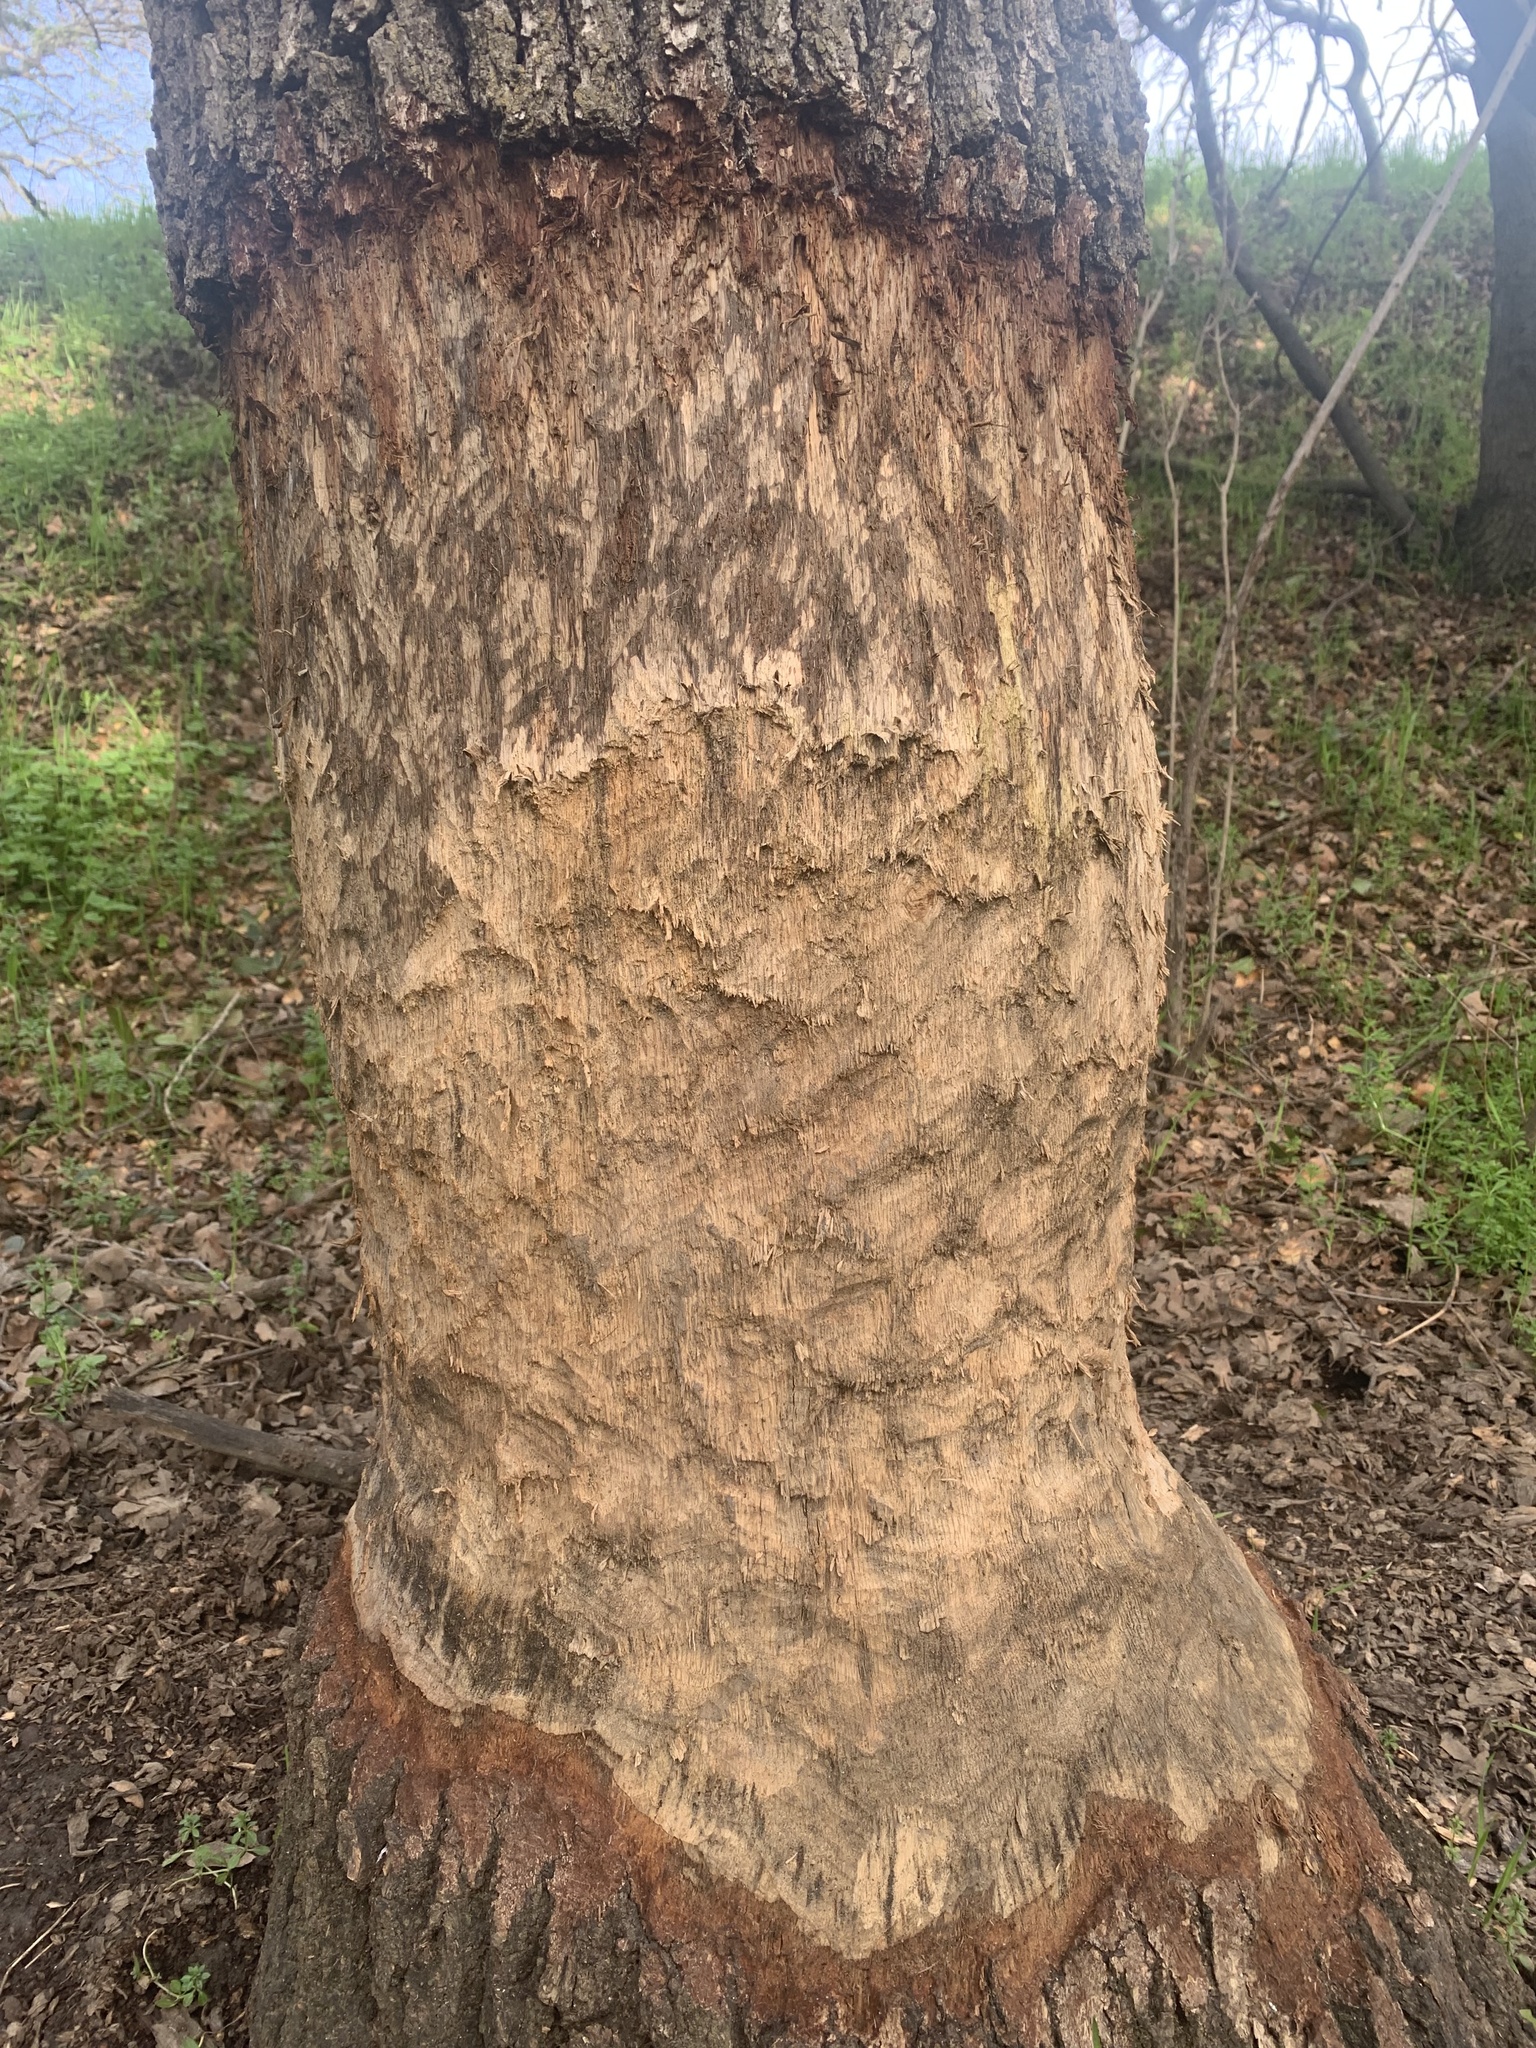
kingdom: Animalia
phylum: Chordata
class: Mammalia
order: Rodentia
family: Castoridae
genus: Castor
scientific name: Castor canadensis
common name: American beaver
